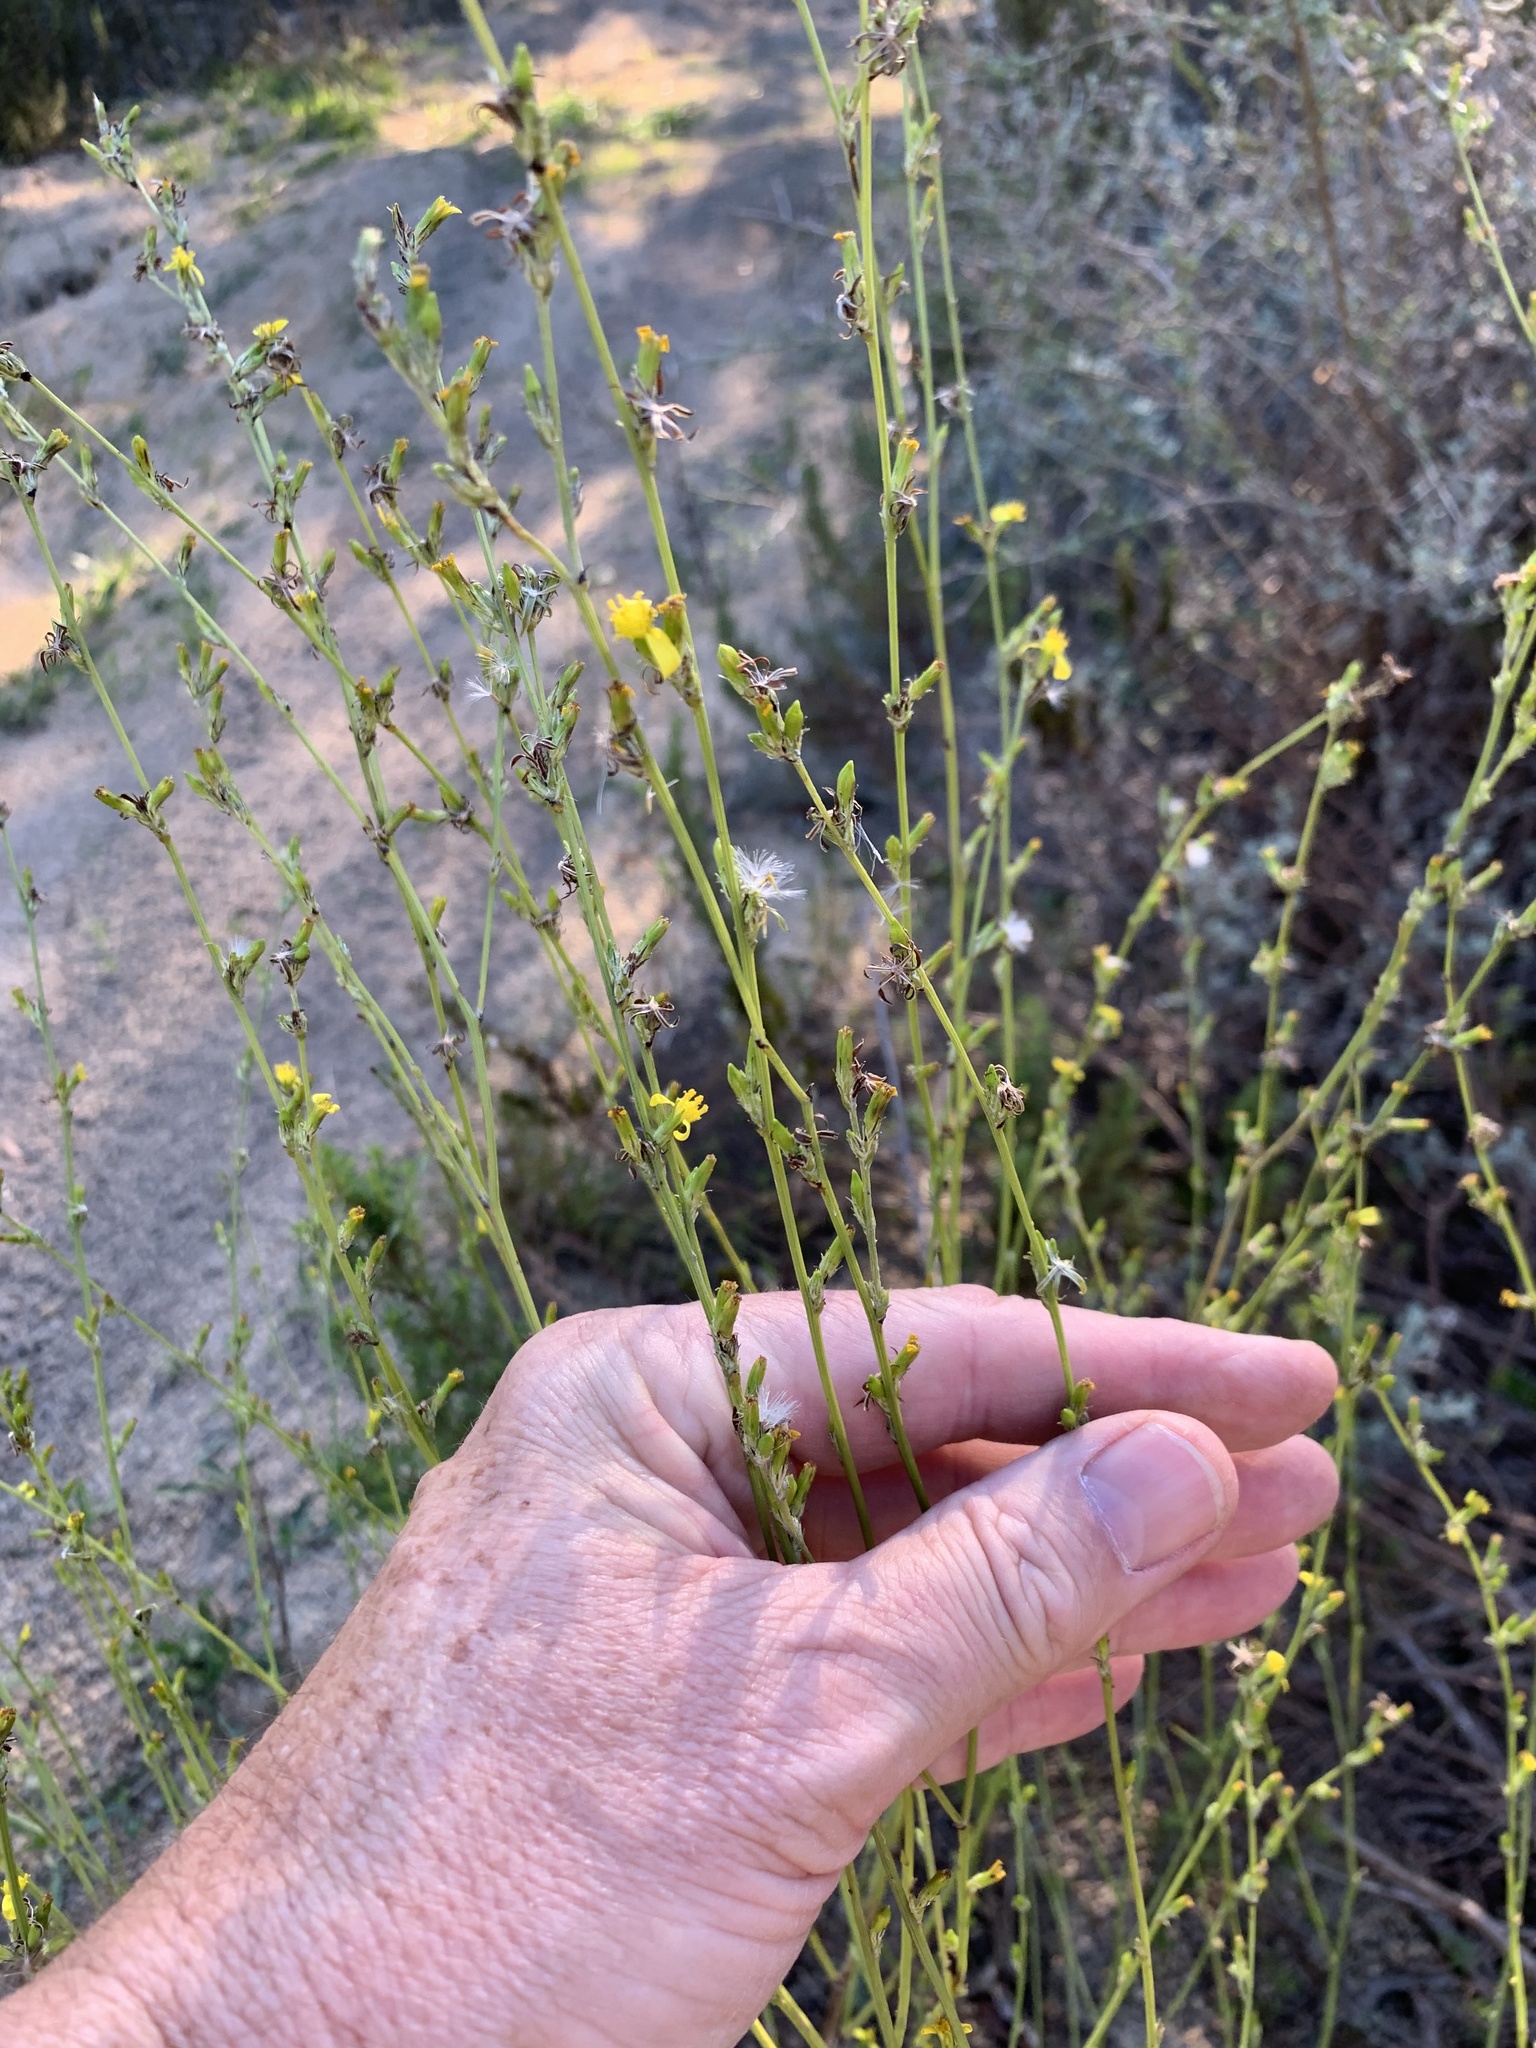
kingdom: Plantae
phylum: Tracheophyta
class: Magnoliopsida
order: Asterales
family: Asteraceae
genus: Senecio
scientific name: Senecio pubigerus
